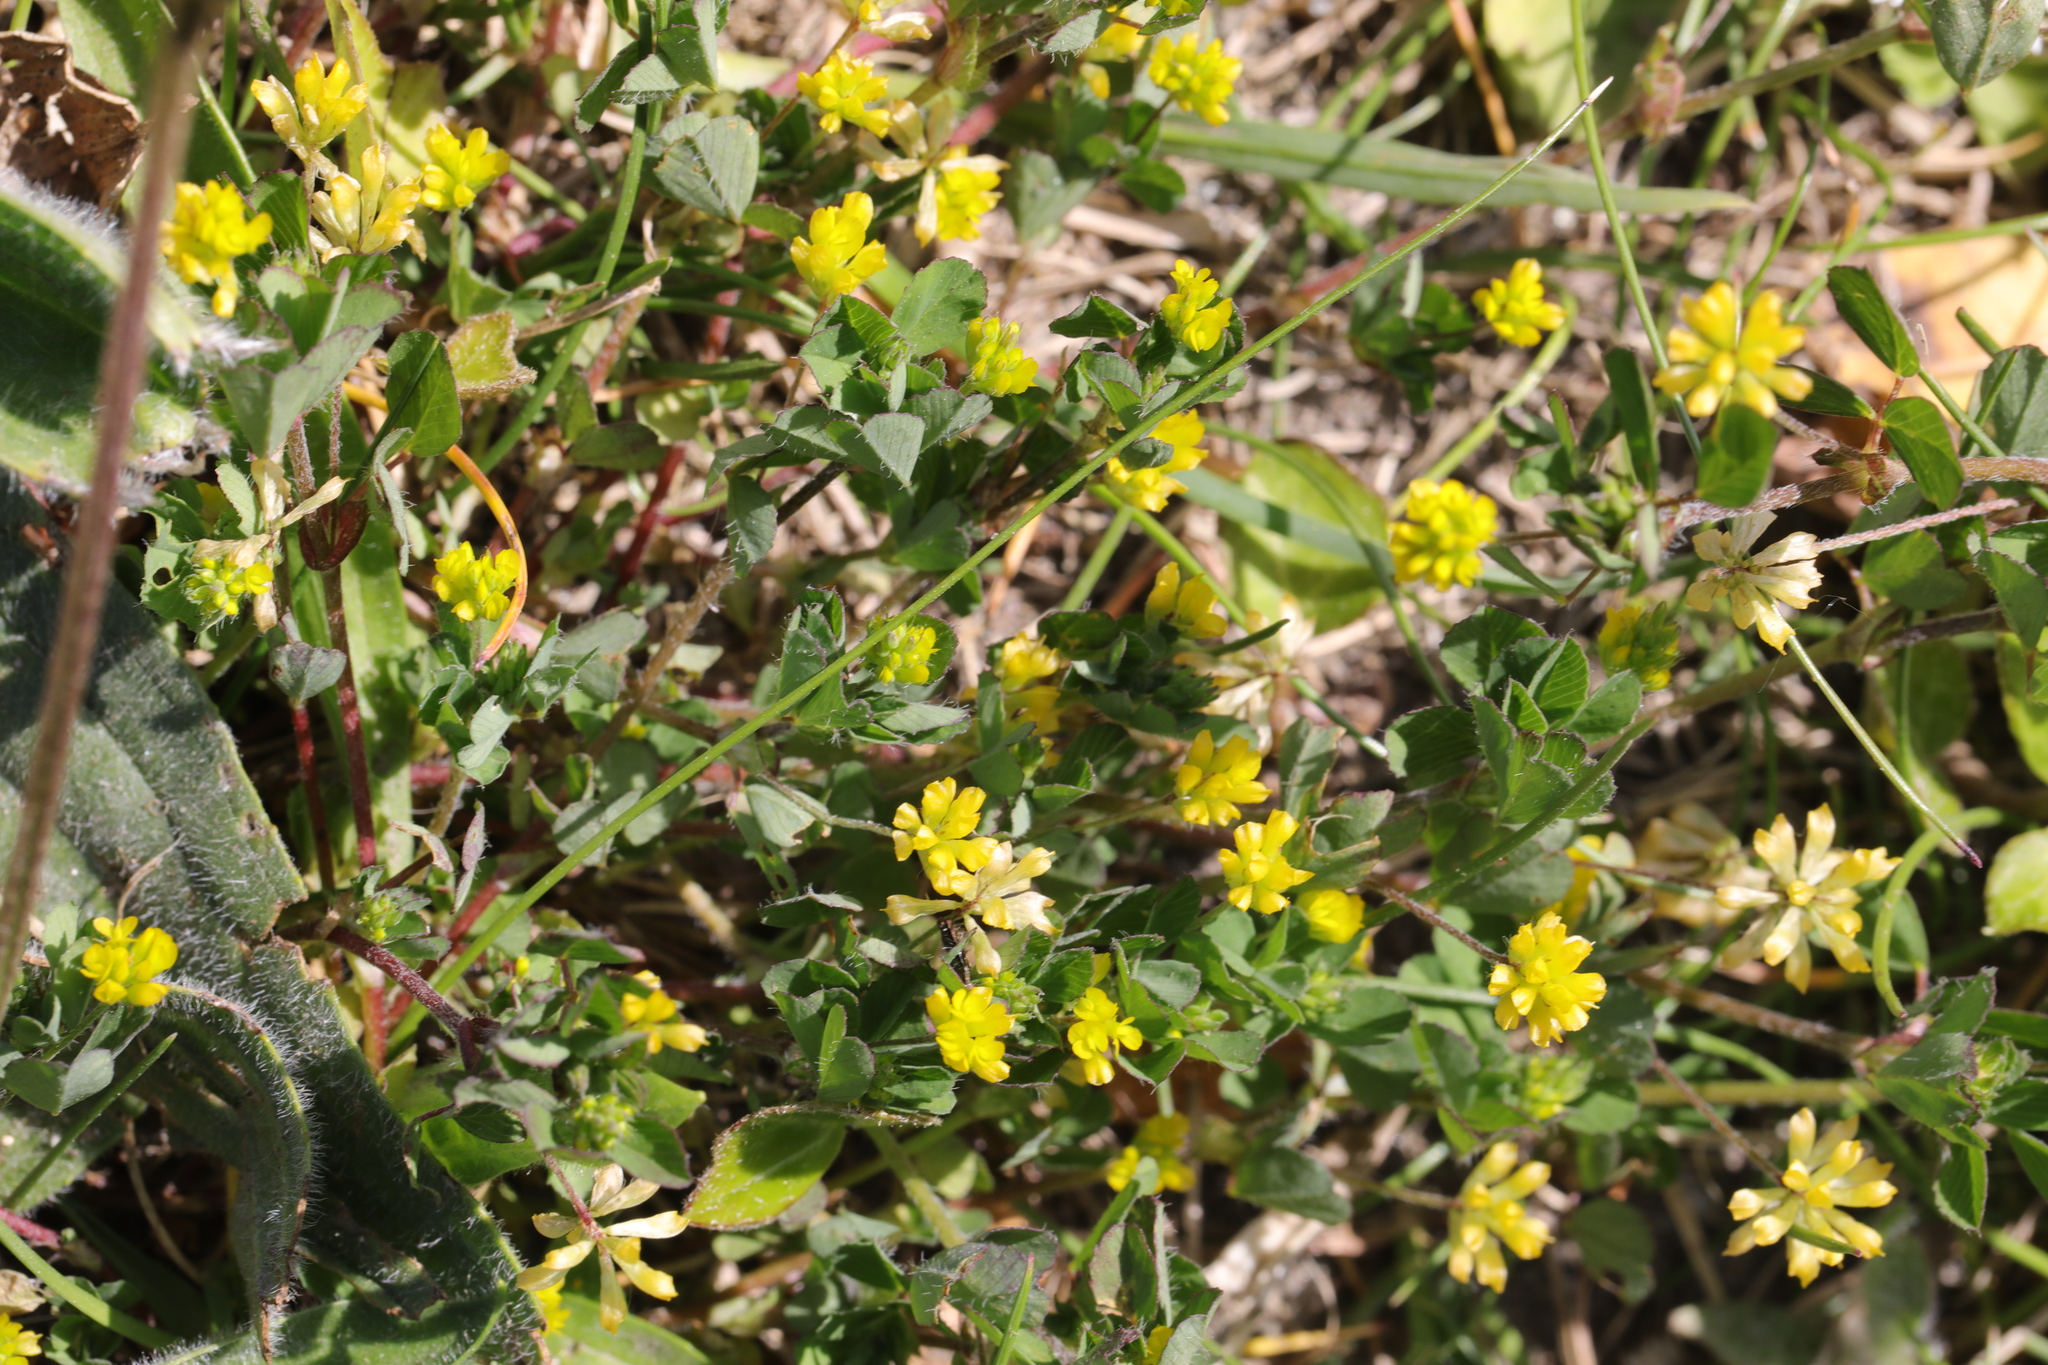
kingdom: Plantae
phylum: Tracheophyta
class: Magnoliopsida
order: Fabales
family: Fabaceae
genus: Trifolium
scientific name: Trifolium dubium
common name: Suckling clover
